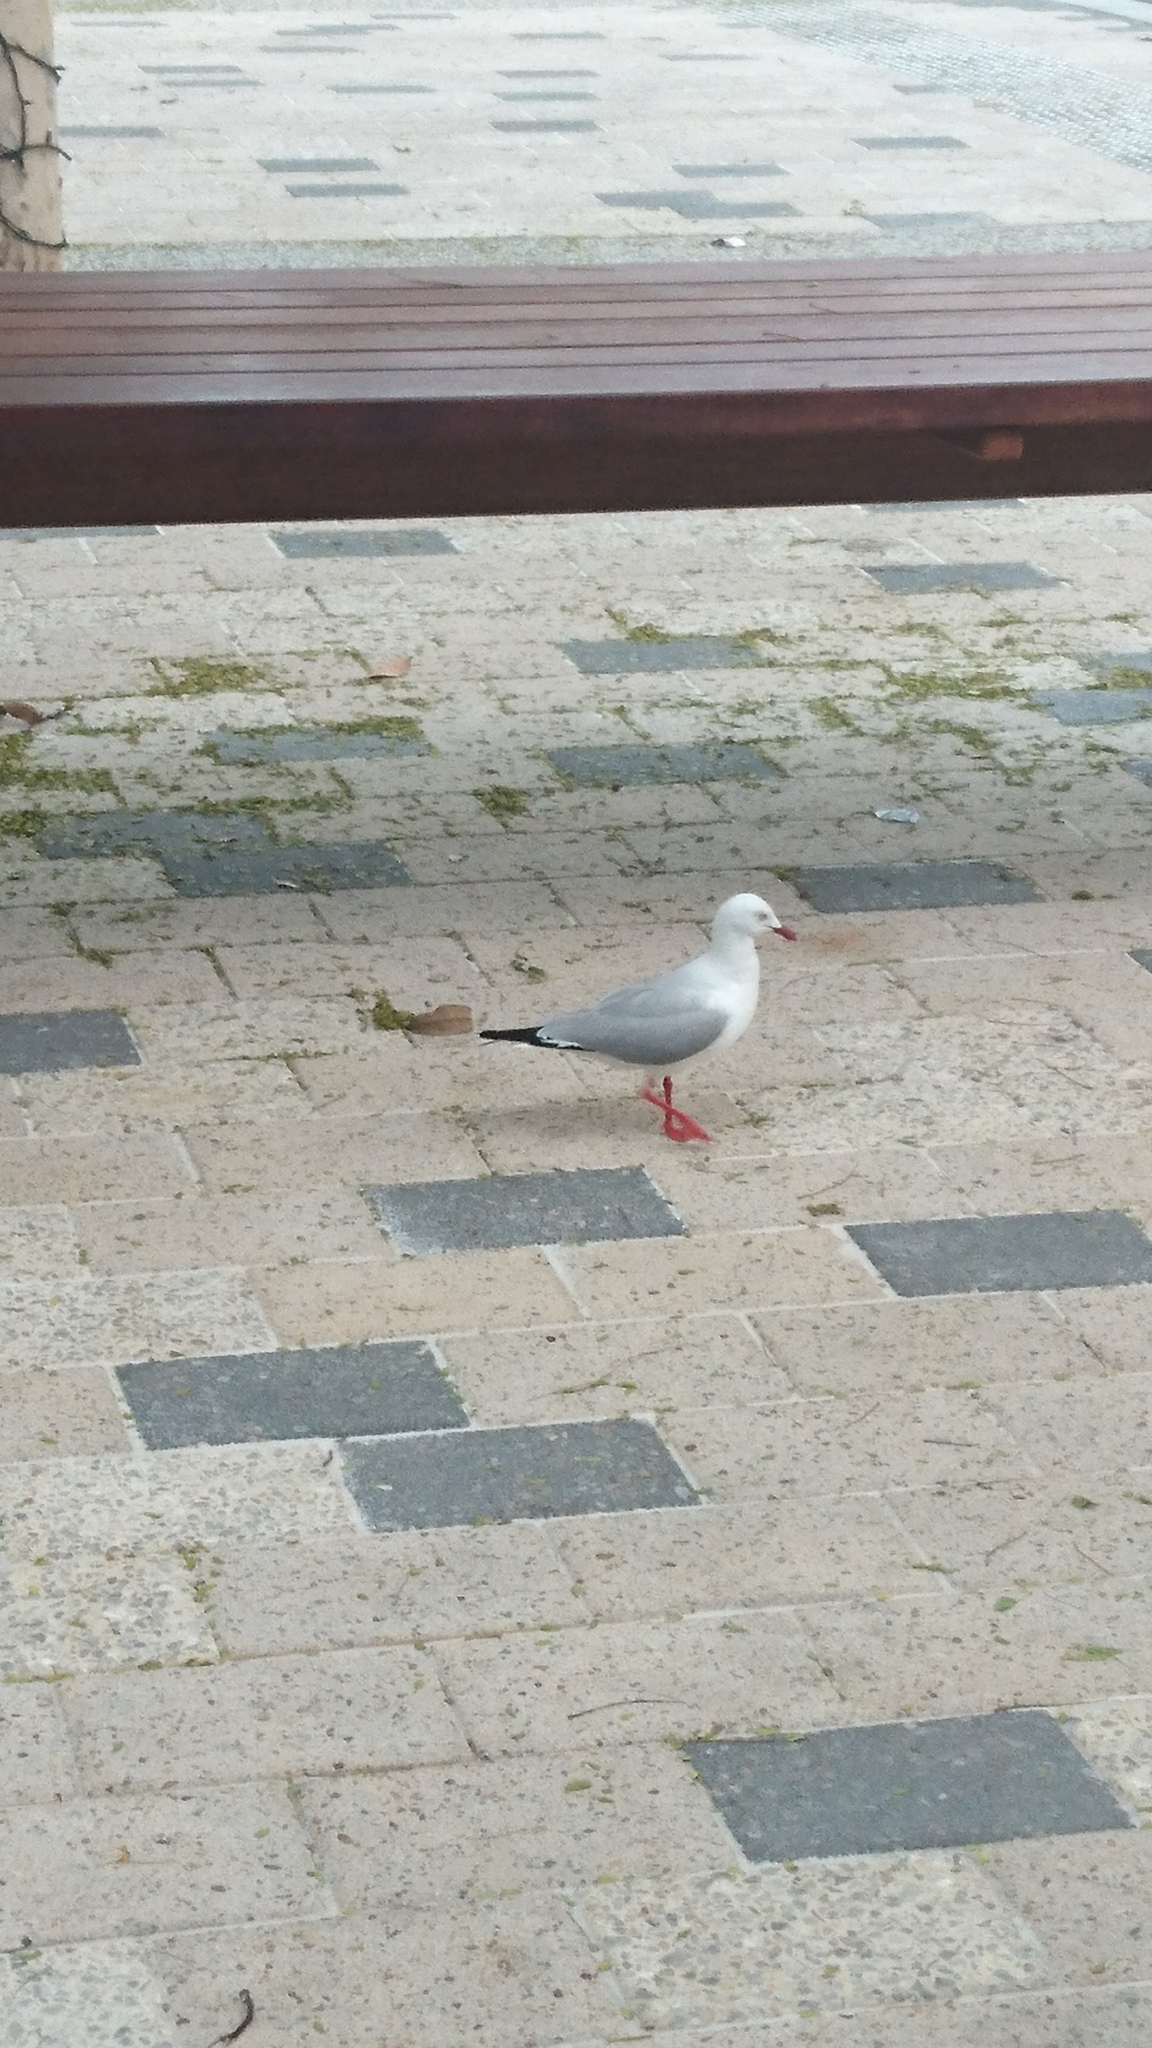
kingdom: Animalia
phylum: Chordata
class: Aves
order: Charadriiformes
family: Laridae
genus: Chroicocephalus
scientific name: Chroicocephalus novaehollandiae
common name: Silver gull
